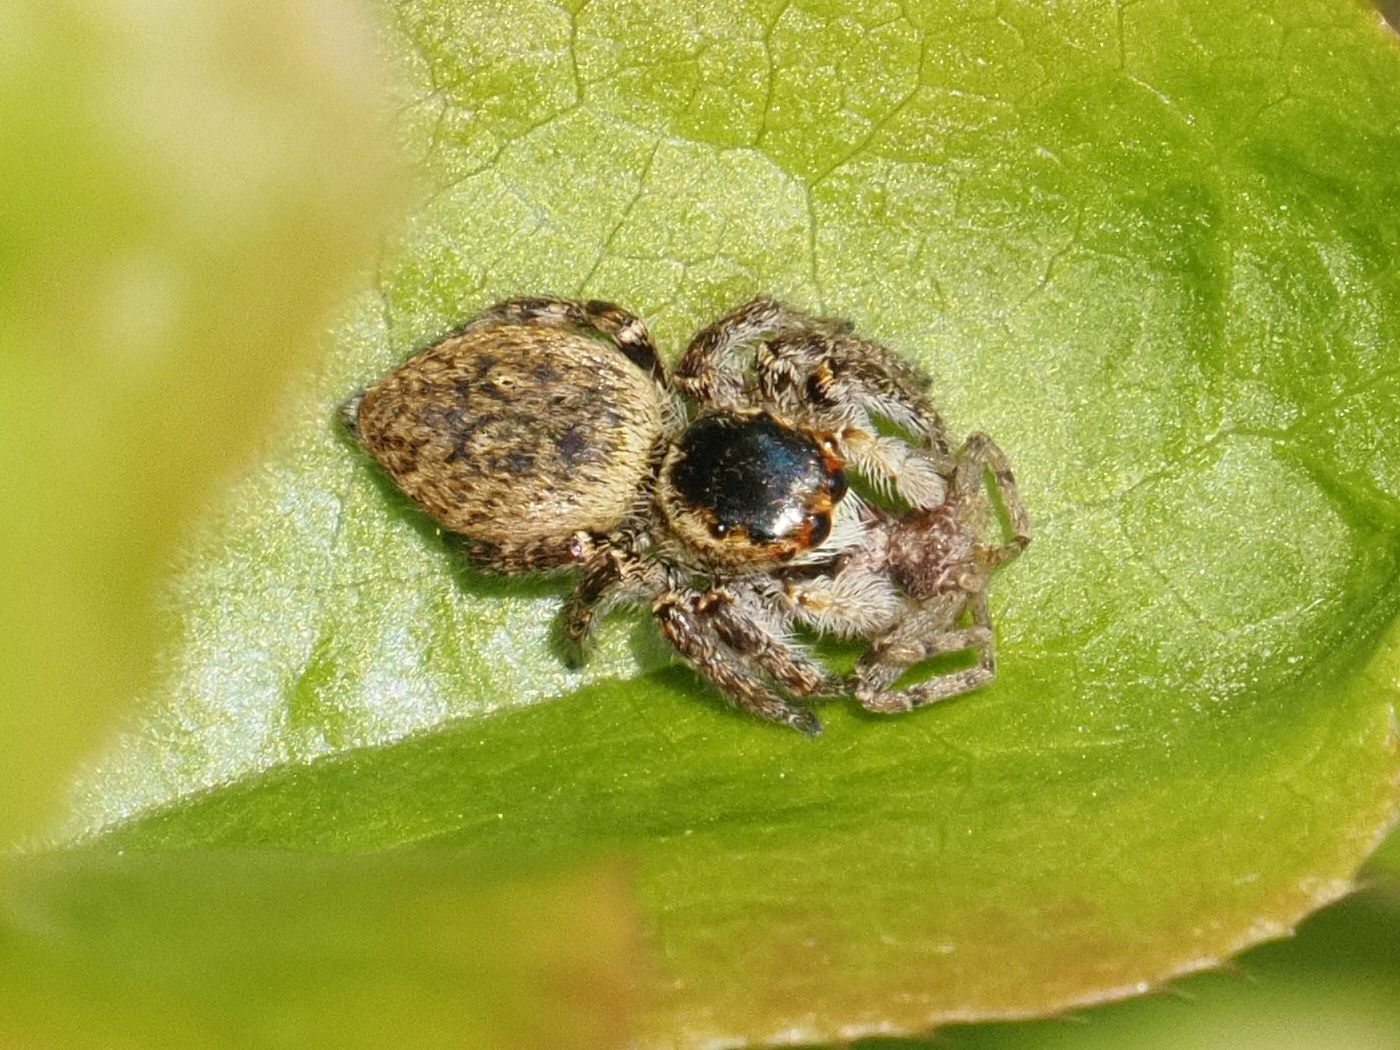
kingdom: Animalia
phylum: Arthropoda
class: Arachnida
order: Araneae
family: Salticidae
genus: Carrhotus
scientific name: Carrhotus xanthogramma
